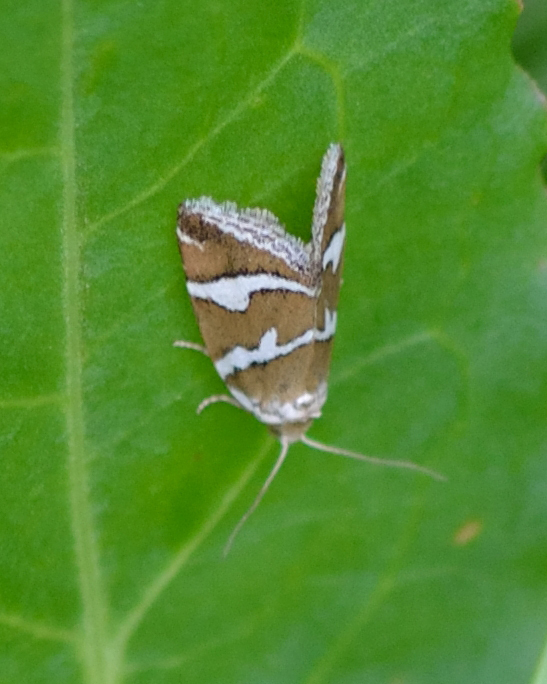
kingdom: Animalia
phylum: Arthropoda
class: Insecta
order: Lepidoptera
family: Noctuidae
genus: Deltote
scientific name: Deltote bankiana
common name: Silver barred
